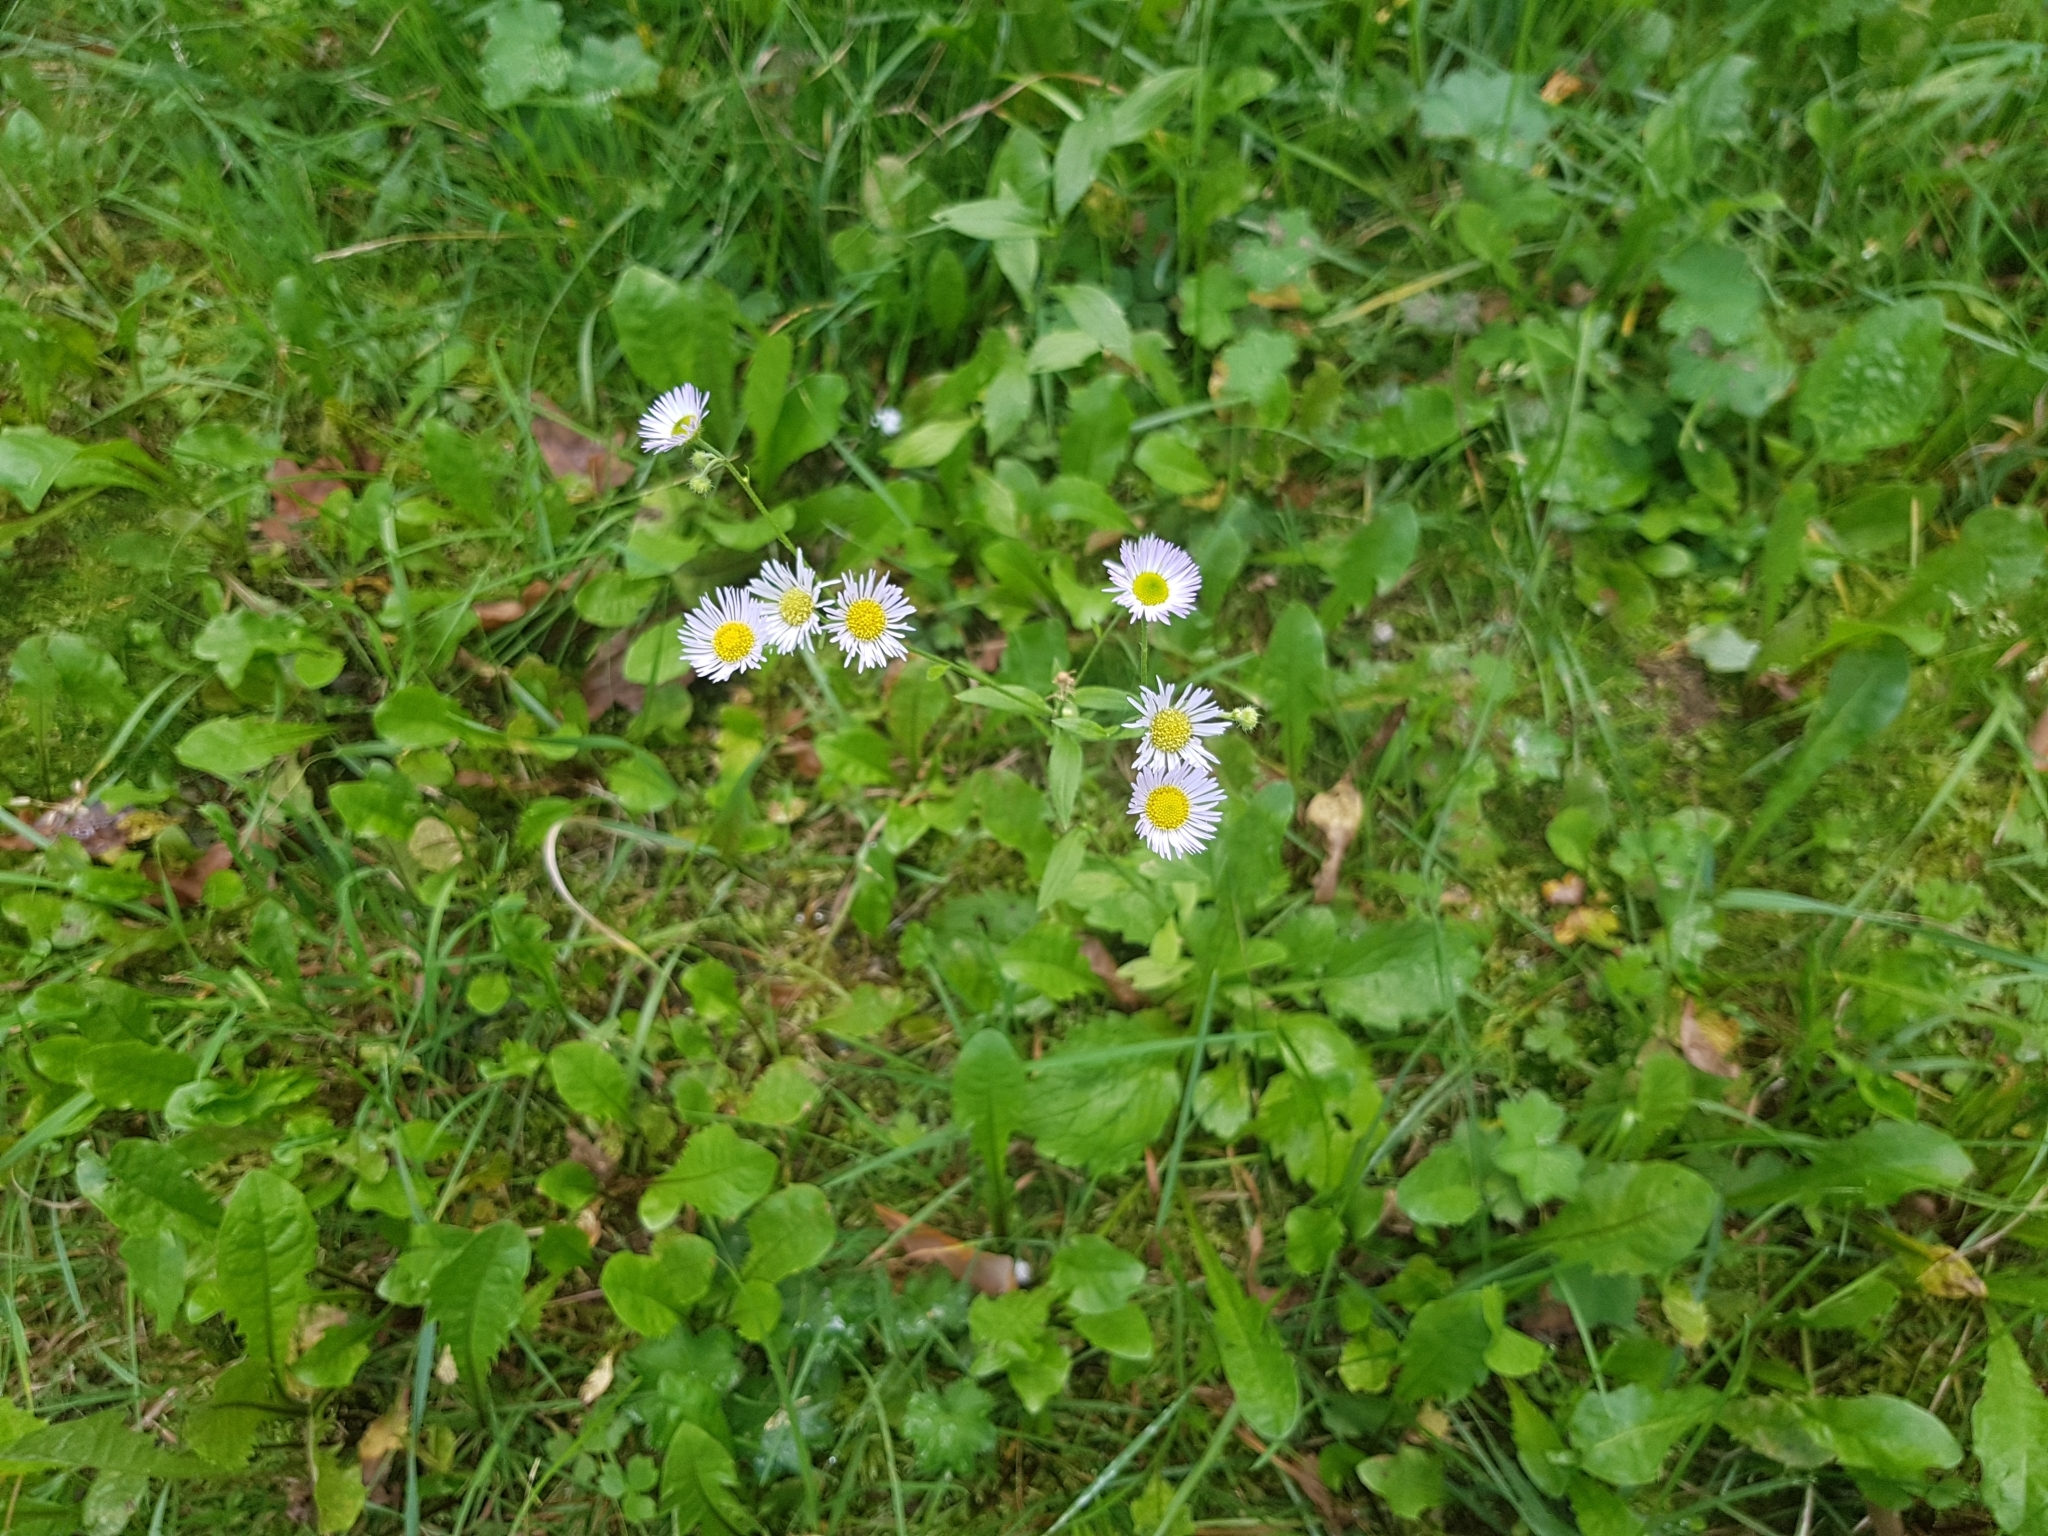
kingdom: Plantae
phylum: Tracheophyta
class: Magnoliopsida
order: Asterales
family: Asteraceae
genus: Erigeron
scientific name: Erigeron annuus
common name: Tall fleabane
